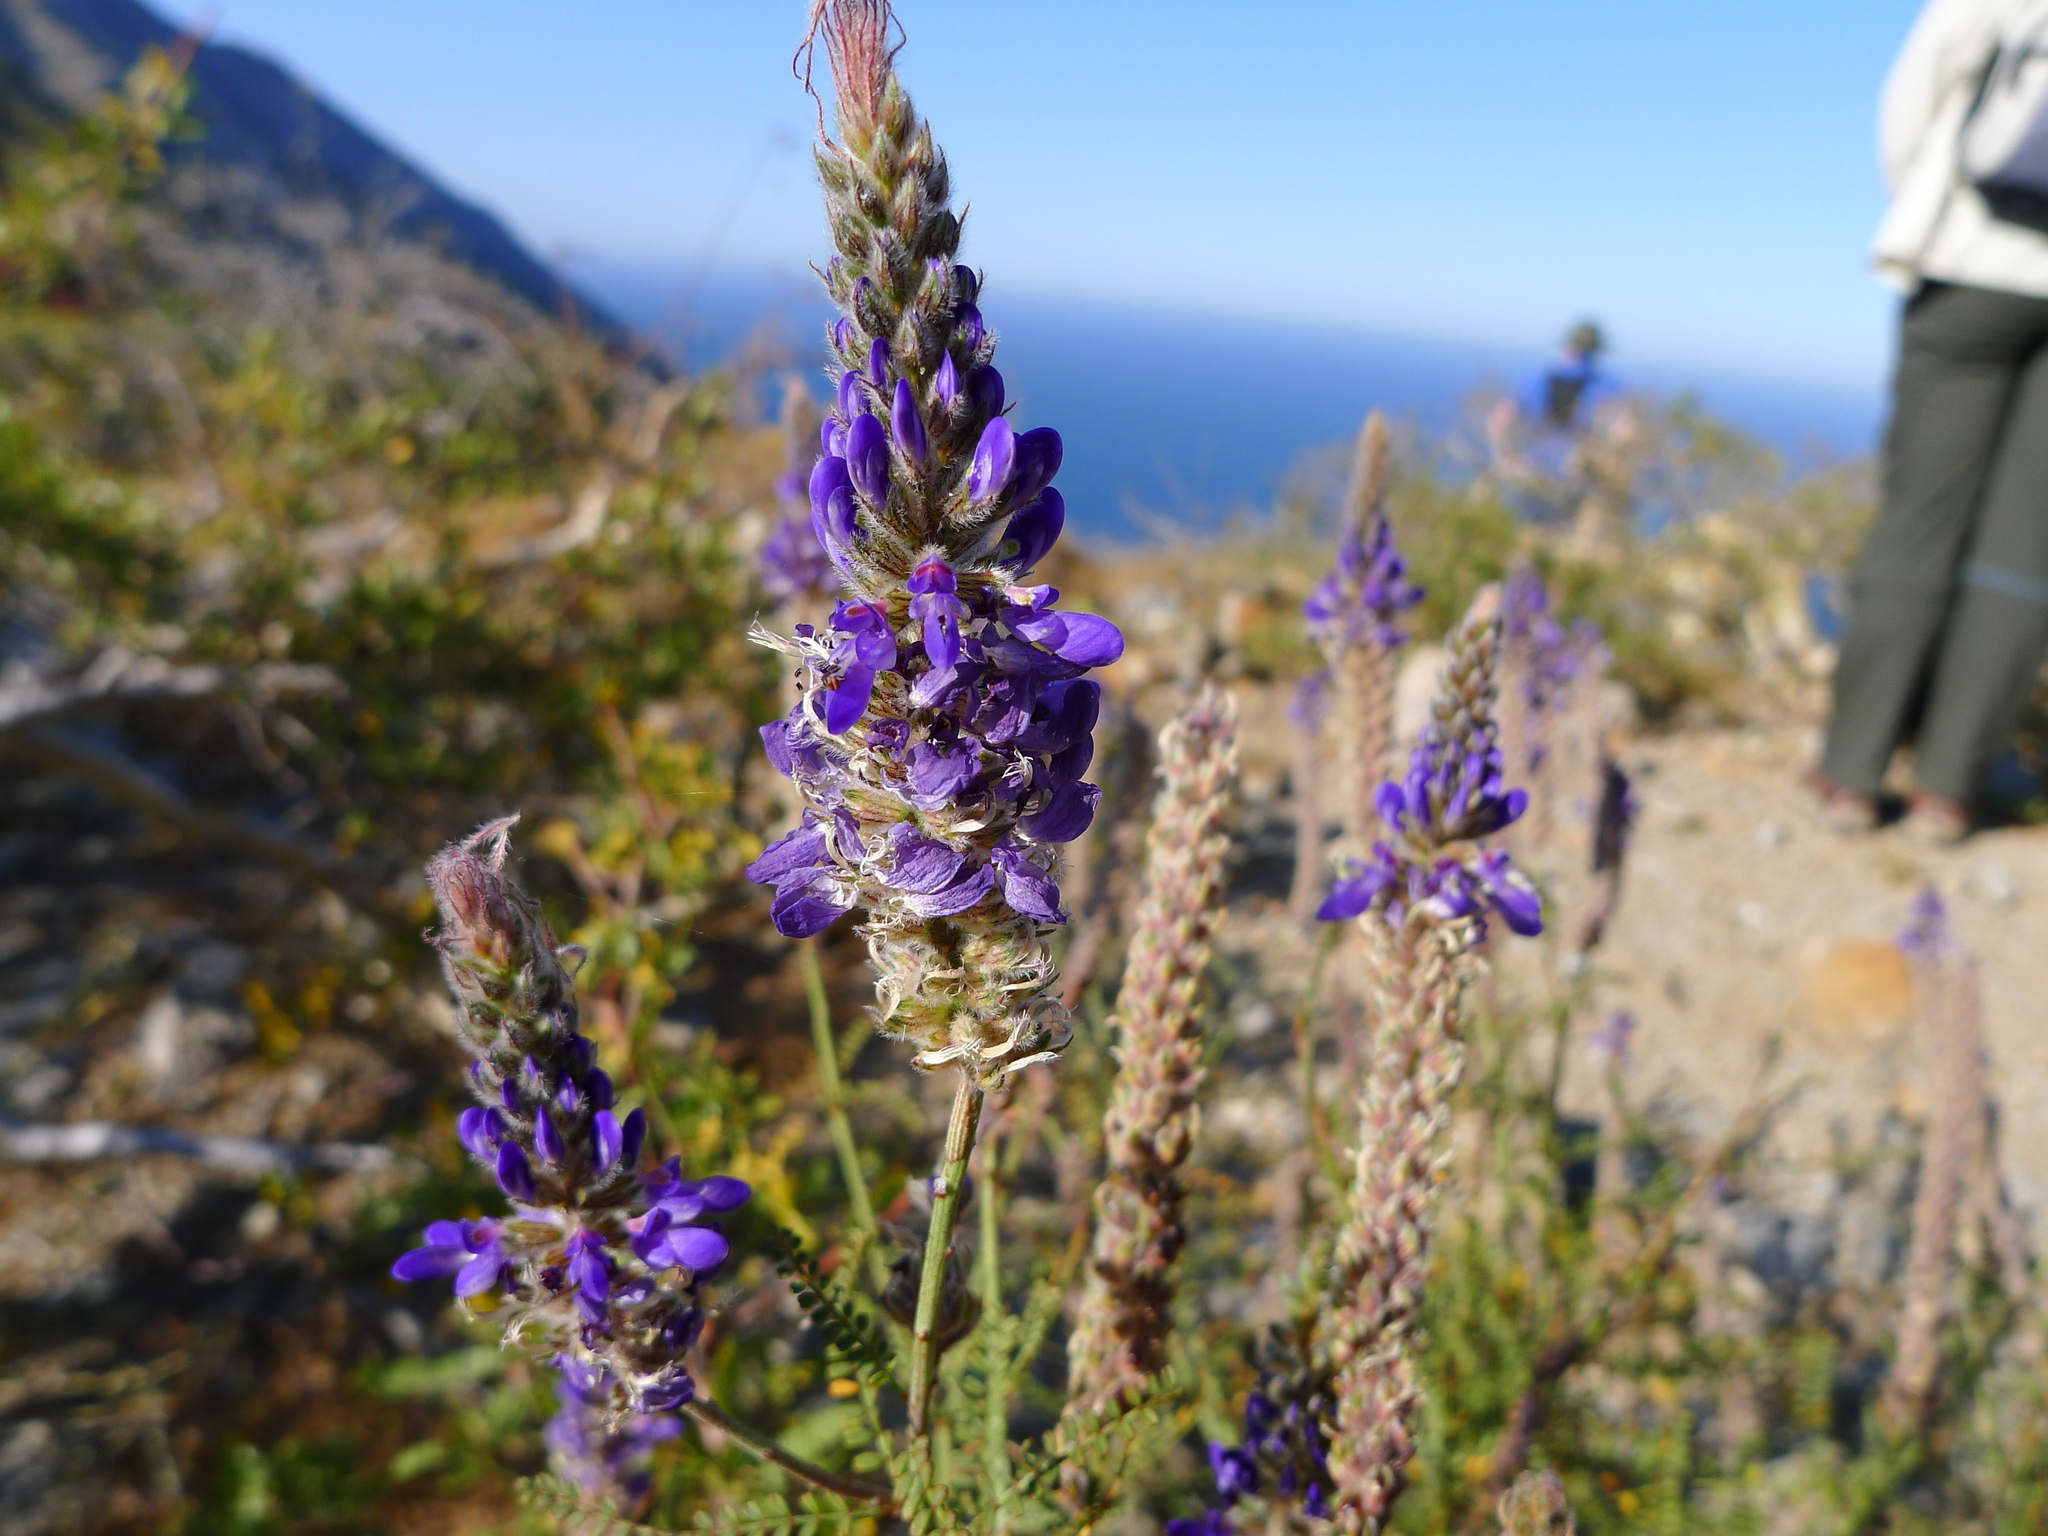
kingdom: Plantae
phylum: Tracheophyta
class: Magnoliopsida
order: Fabales
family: Fabaceae
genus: Marina
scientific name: Marina catalinae
